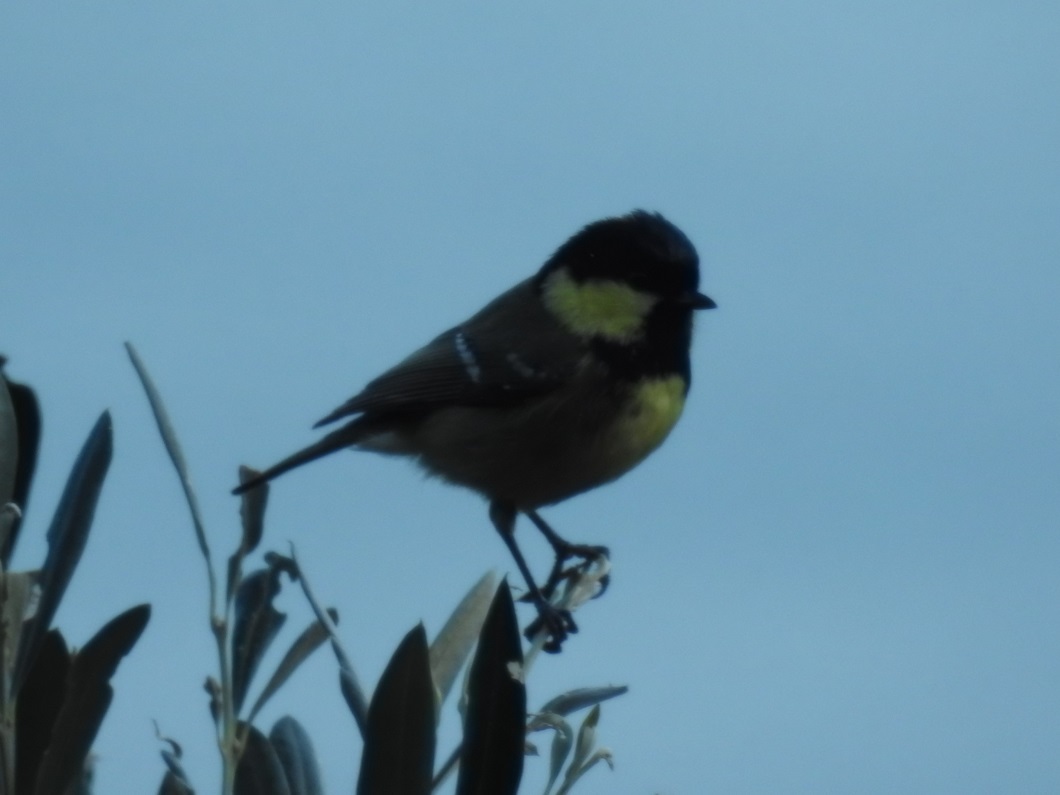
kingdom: Animalia
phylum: Chordata
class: Aves
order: Passeriformes
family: Paridae
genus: Periparus
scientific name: Periparus ater
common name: Coal tit
